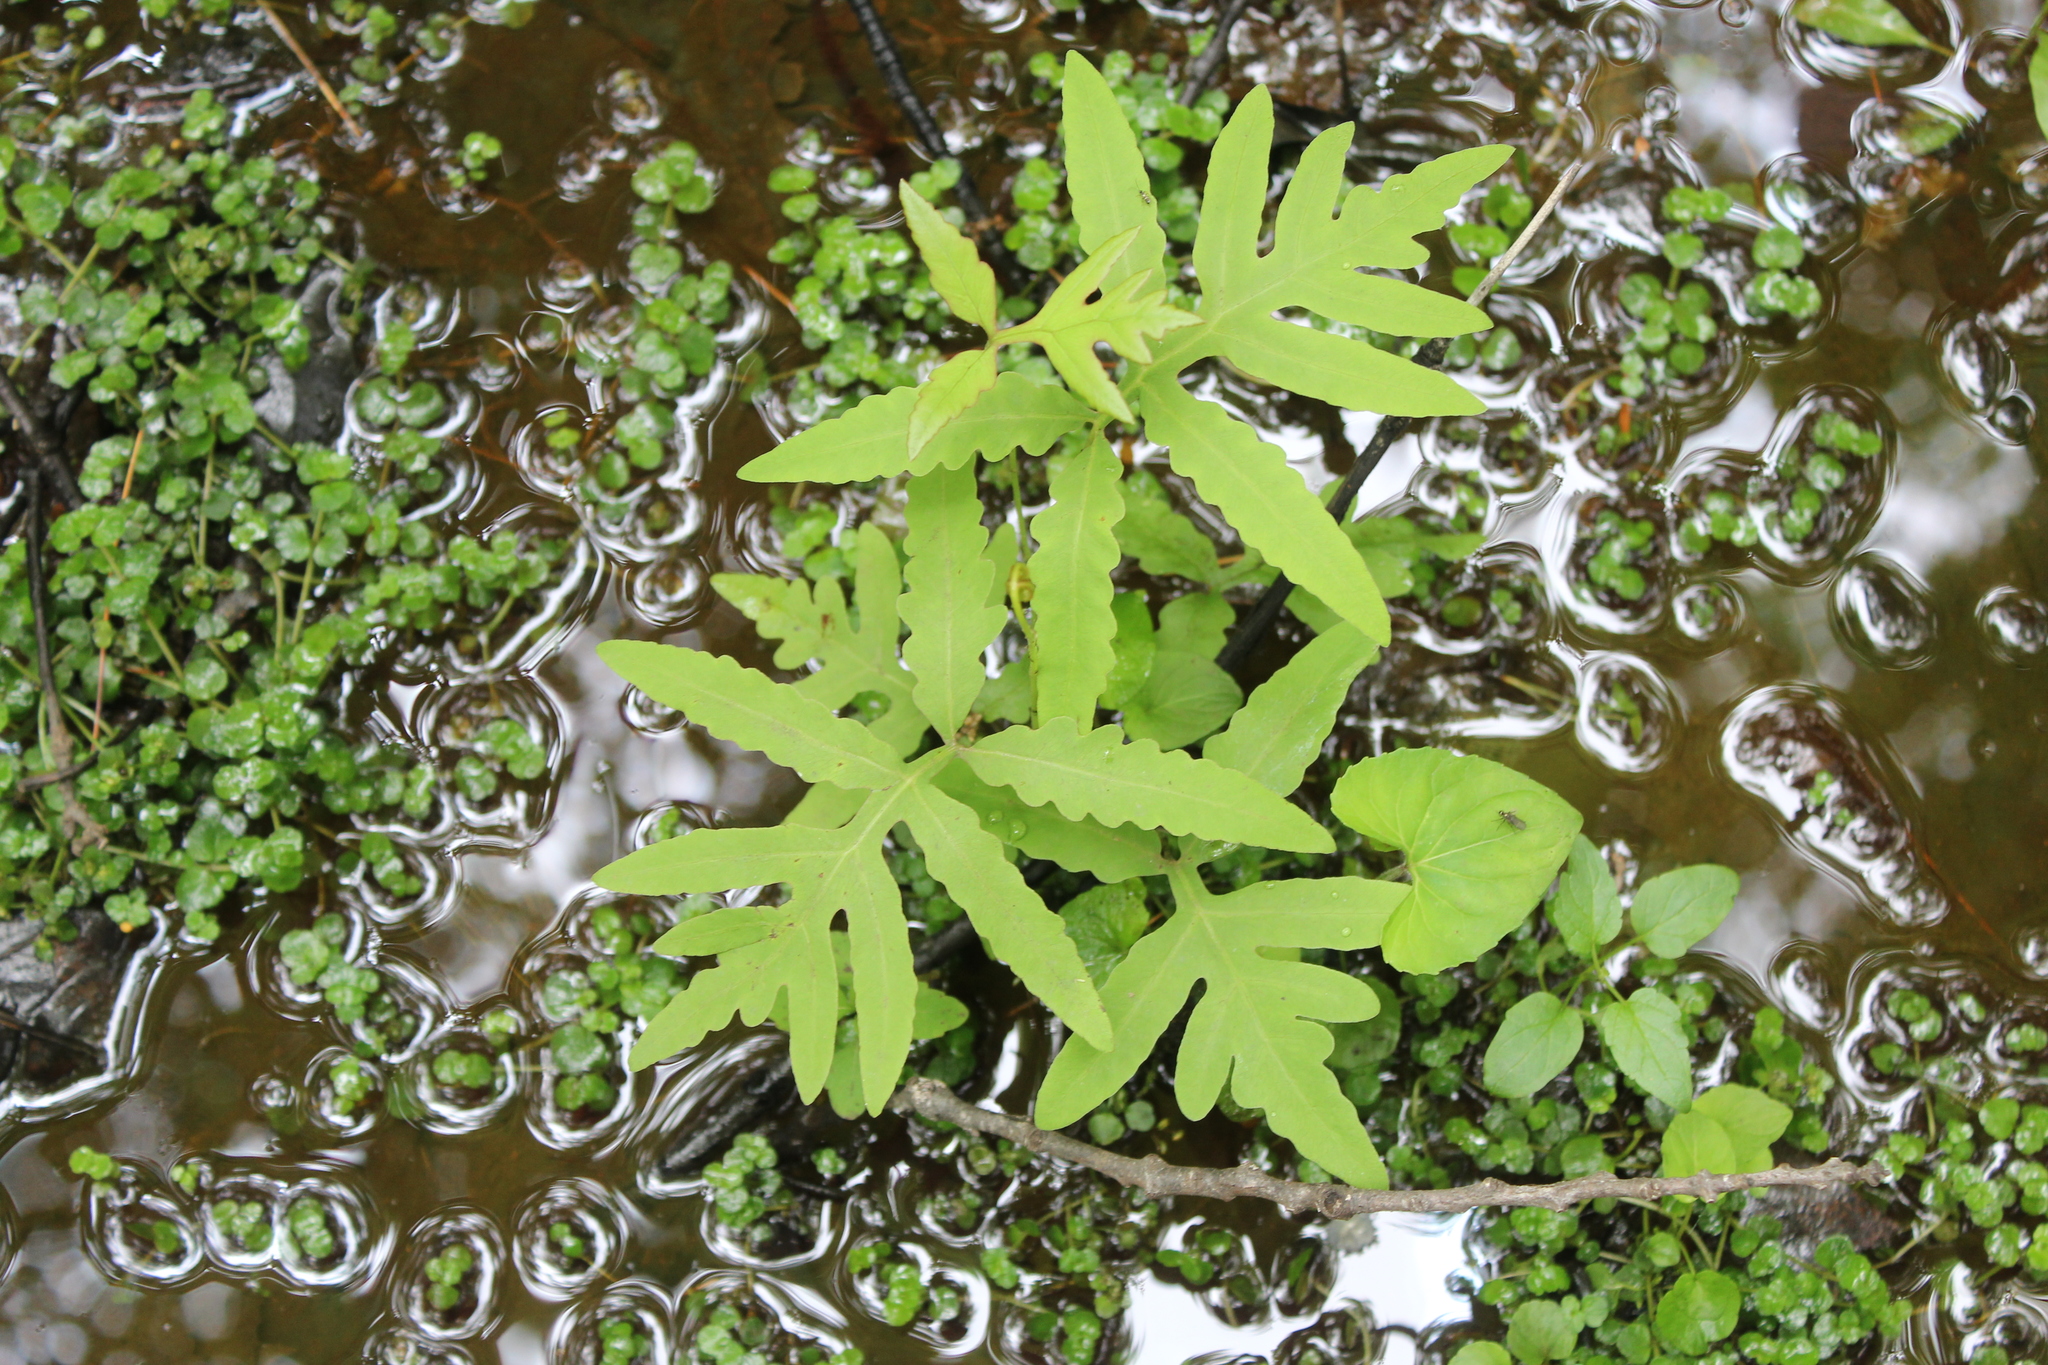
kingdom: Plantae
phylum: Tracheophyta
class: Polypodiopsida
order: Polypodiales
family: Onocleaceae
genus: Onoclea
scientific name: Onoclea sensibilis
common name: Sensitive fern
